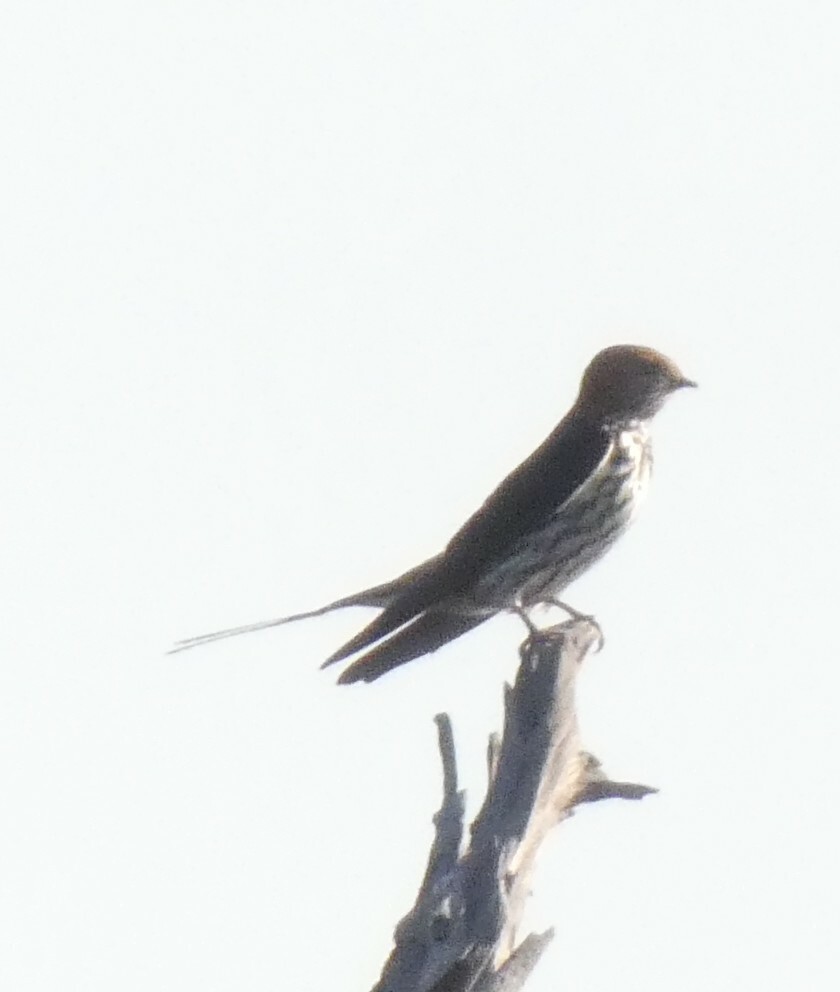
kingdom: Animalia
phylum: Chordata
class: Aves
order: Passeriformes
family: Hirundinidae
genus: Cecropis
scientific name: Cecropis abyssinica
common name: Lesser striped-swallow
